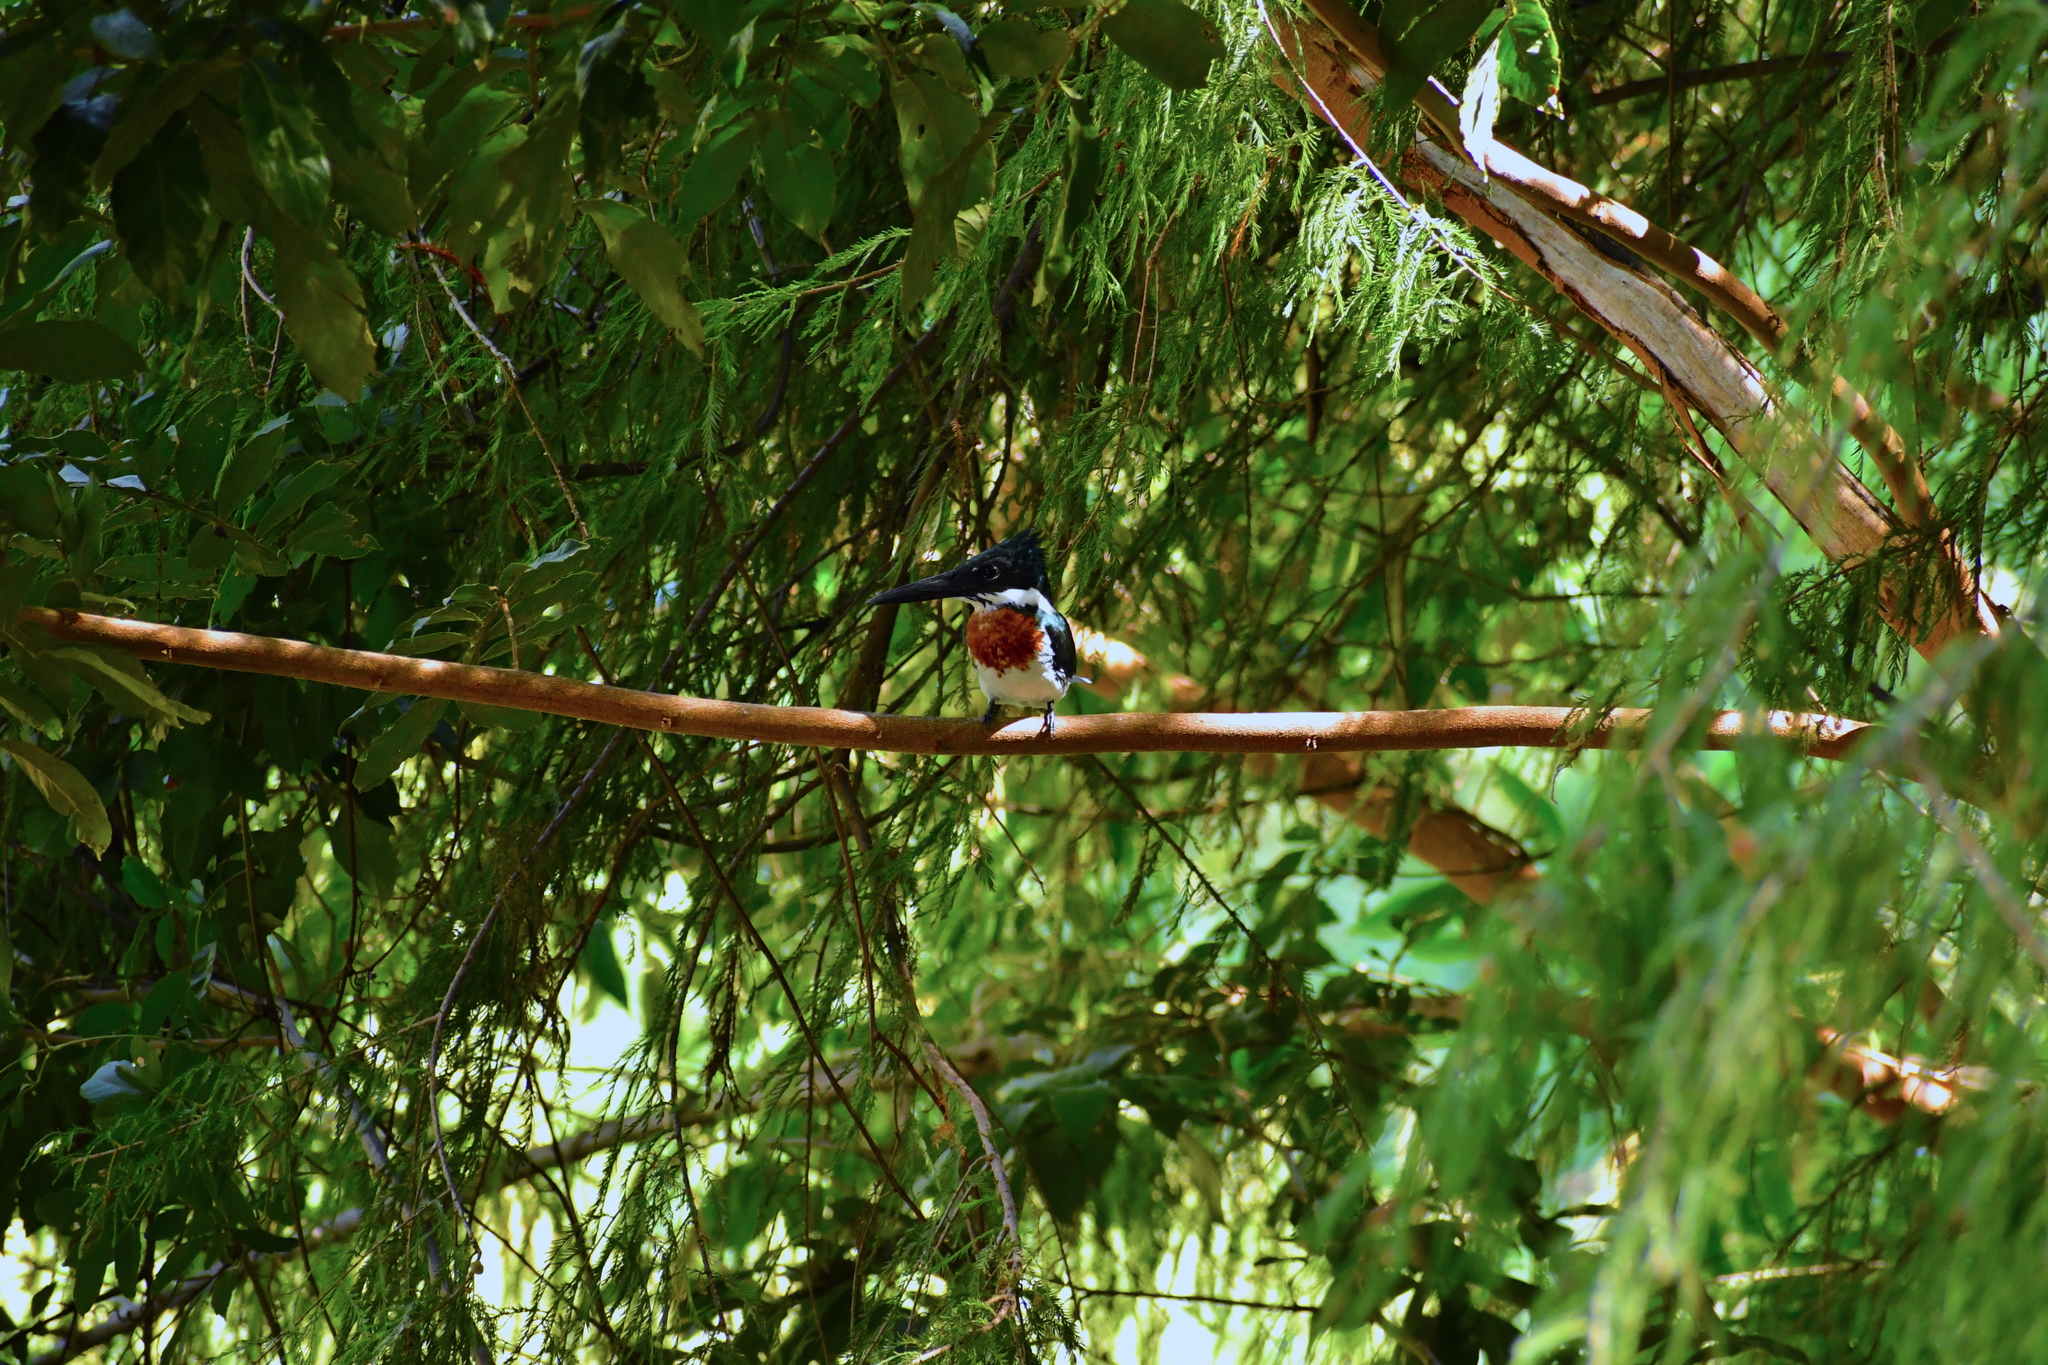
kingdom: Animalia
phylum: Chordata
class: Aves
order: Coraciiformes
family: Alcedinidae
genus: Chloroceryle
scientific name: Chloroceryle amazona
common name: Amazon kingfisher
